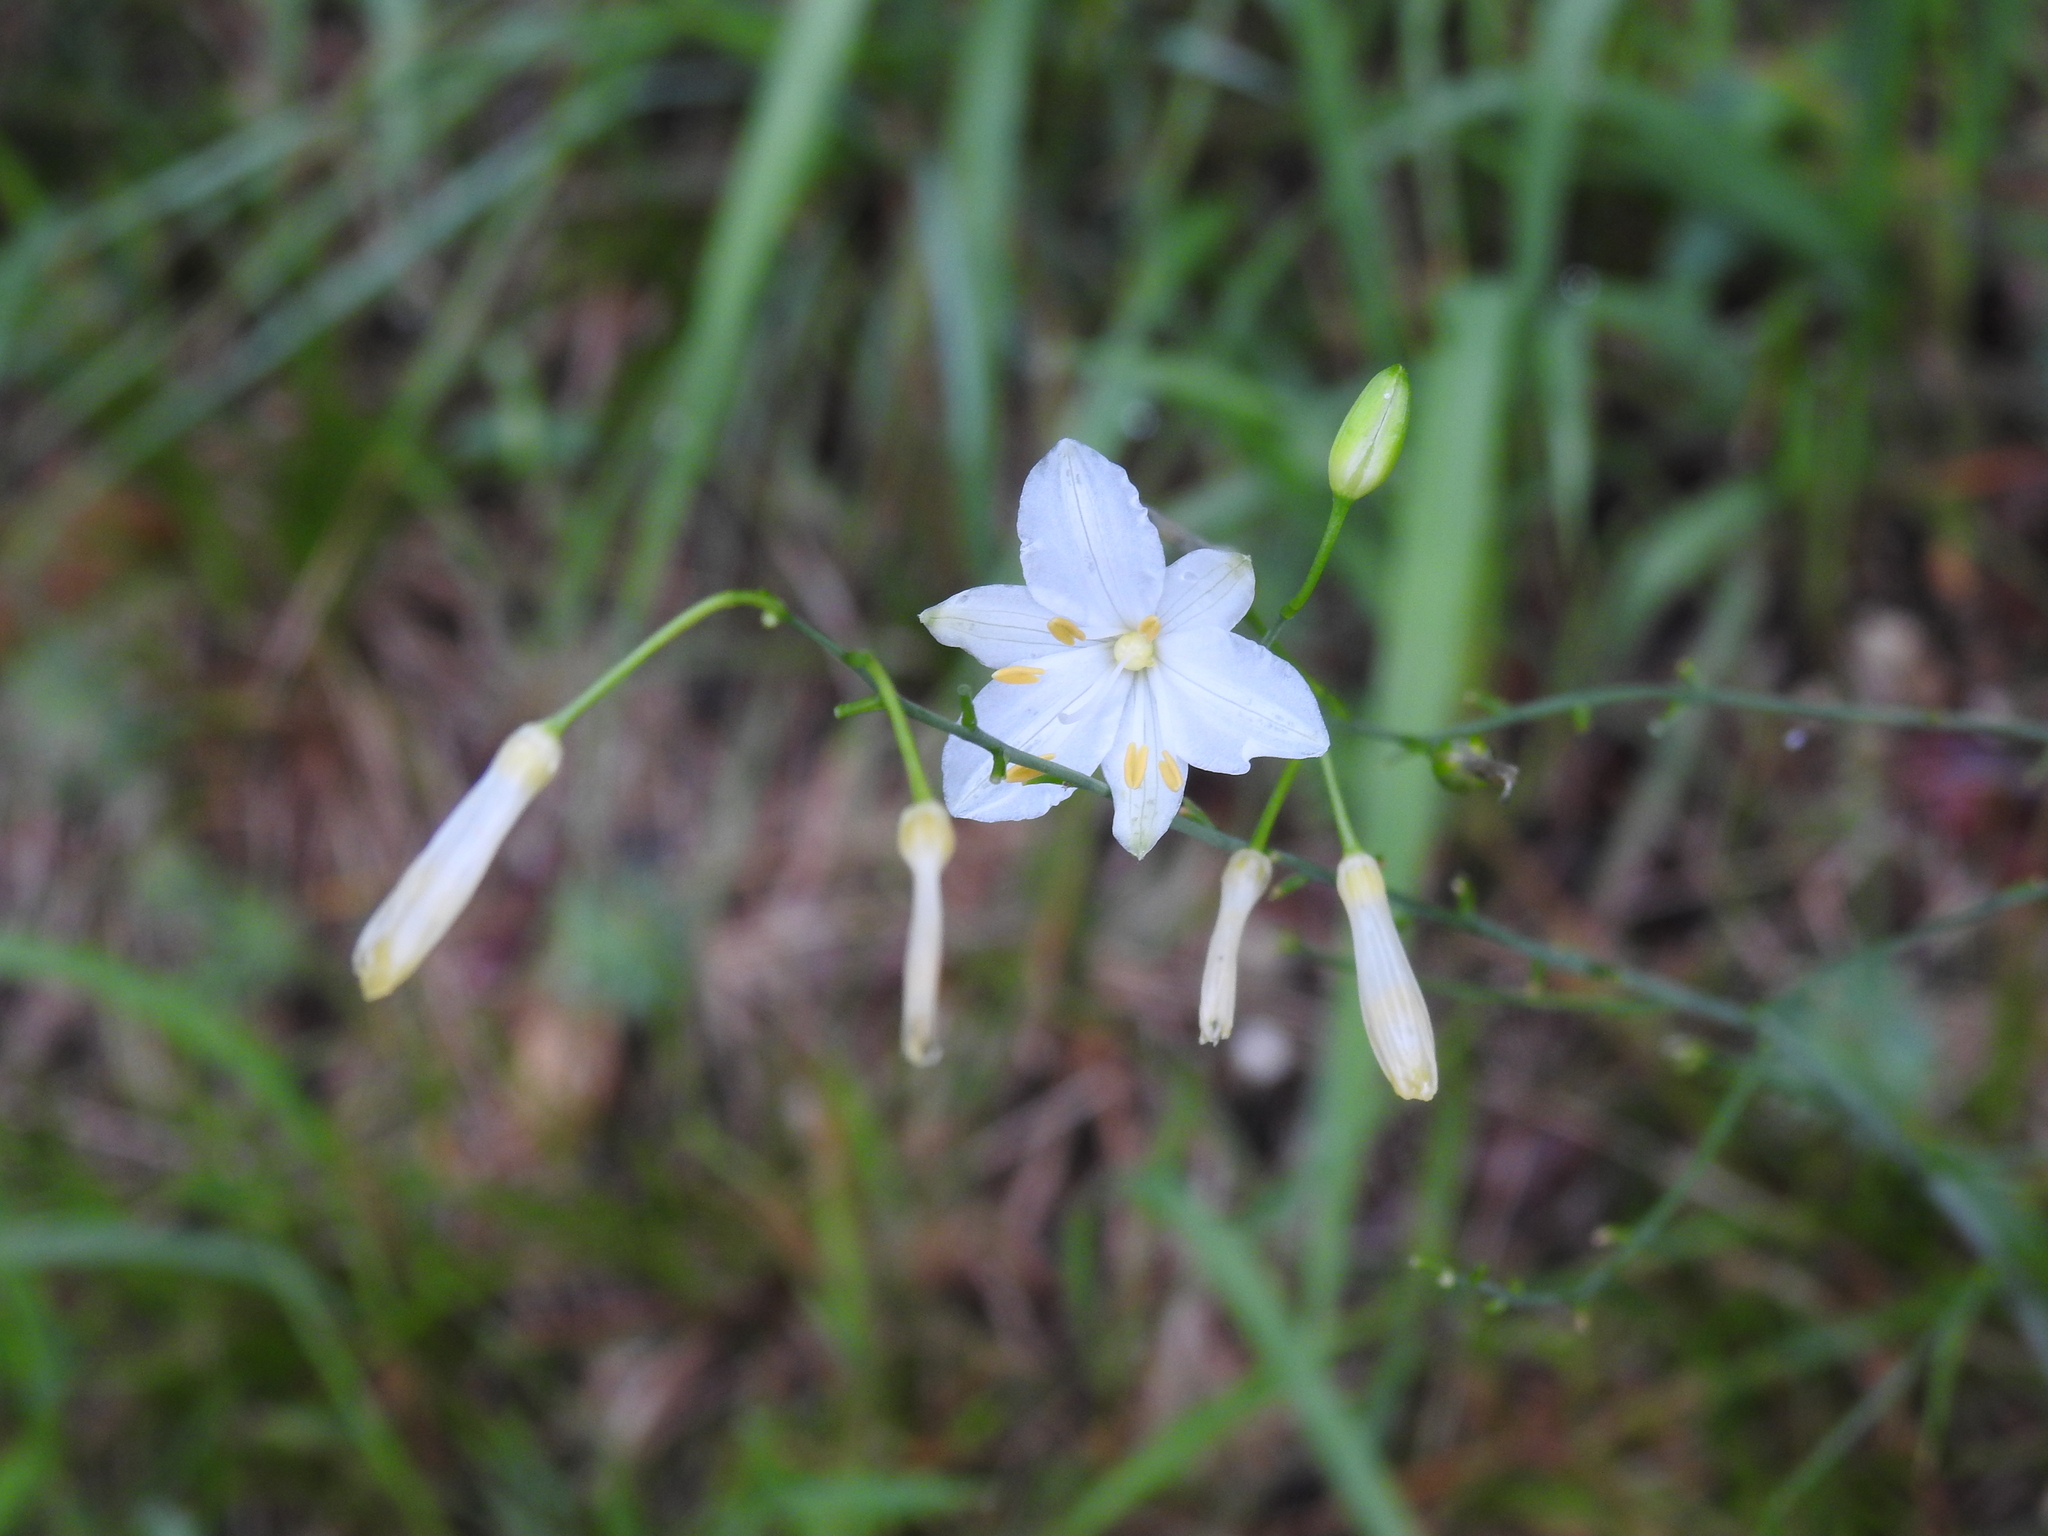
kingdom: Plantae
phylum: Tracheophyta
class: Liliopsida
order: Asparagales
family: Asparagaceae
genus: Anthericum
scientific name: Anthericum ramosum
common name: Branched st. bernard's-lily
